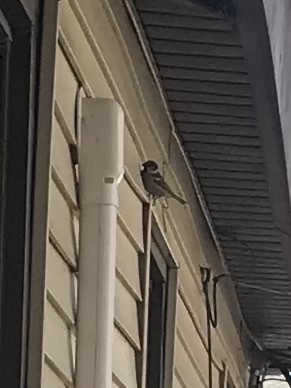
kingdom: Animalia
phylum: Chordata
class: Aves
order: Passeriformes
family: Passeridae
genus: Passer
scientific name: Passer domesticus
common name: House sparrow
